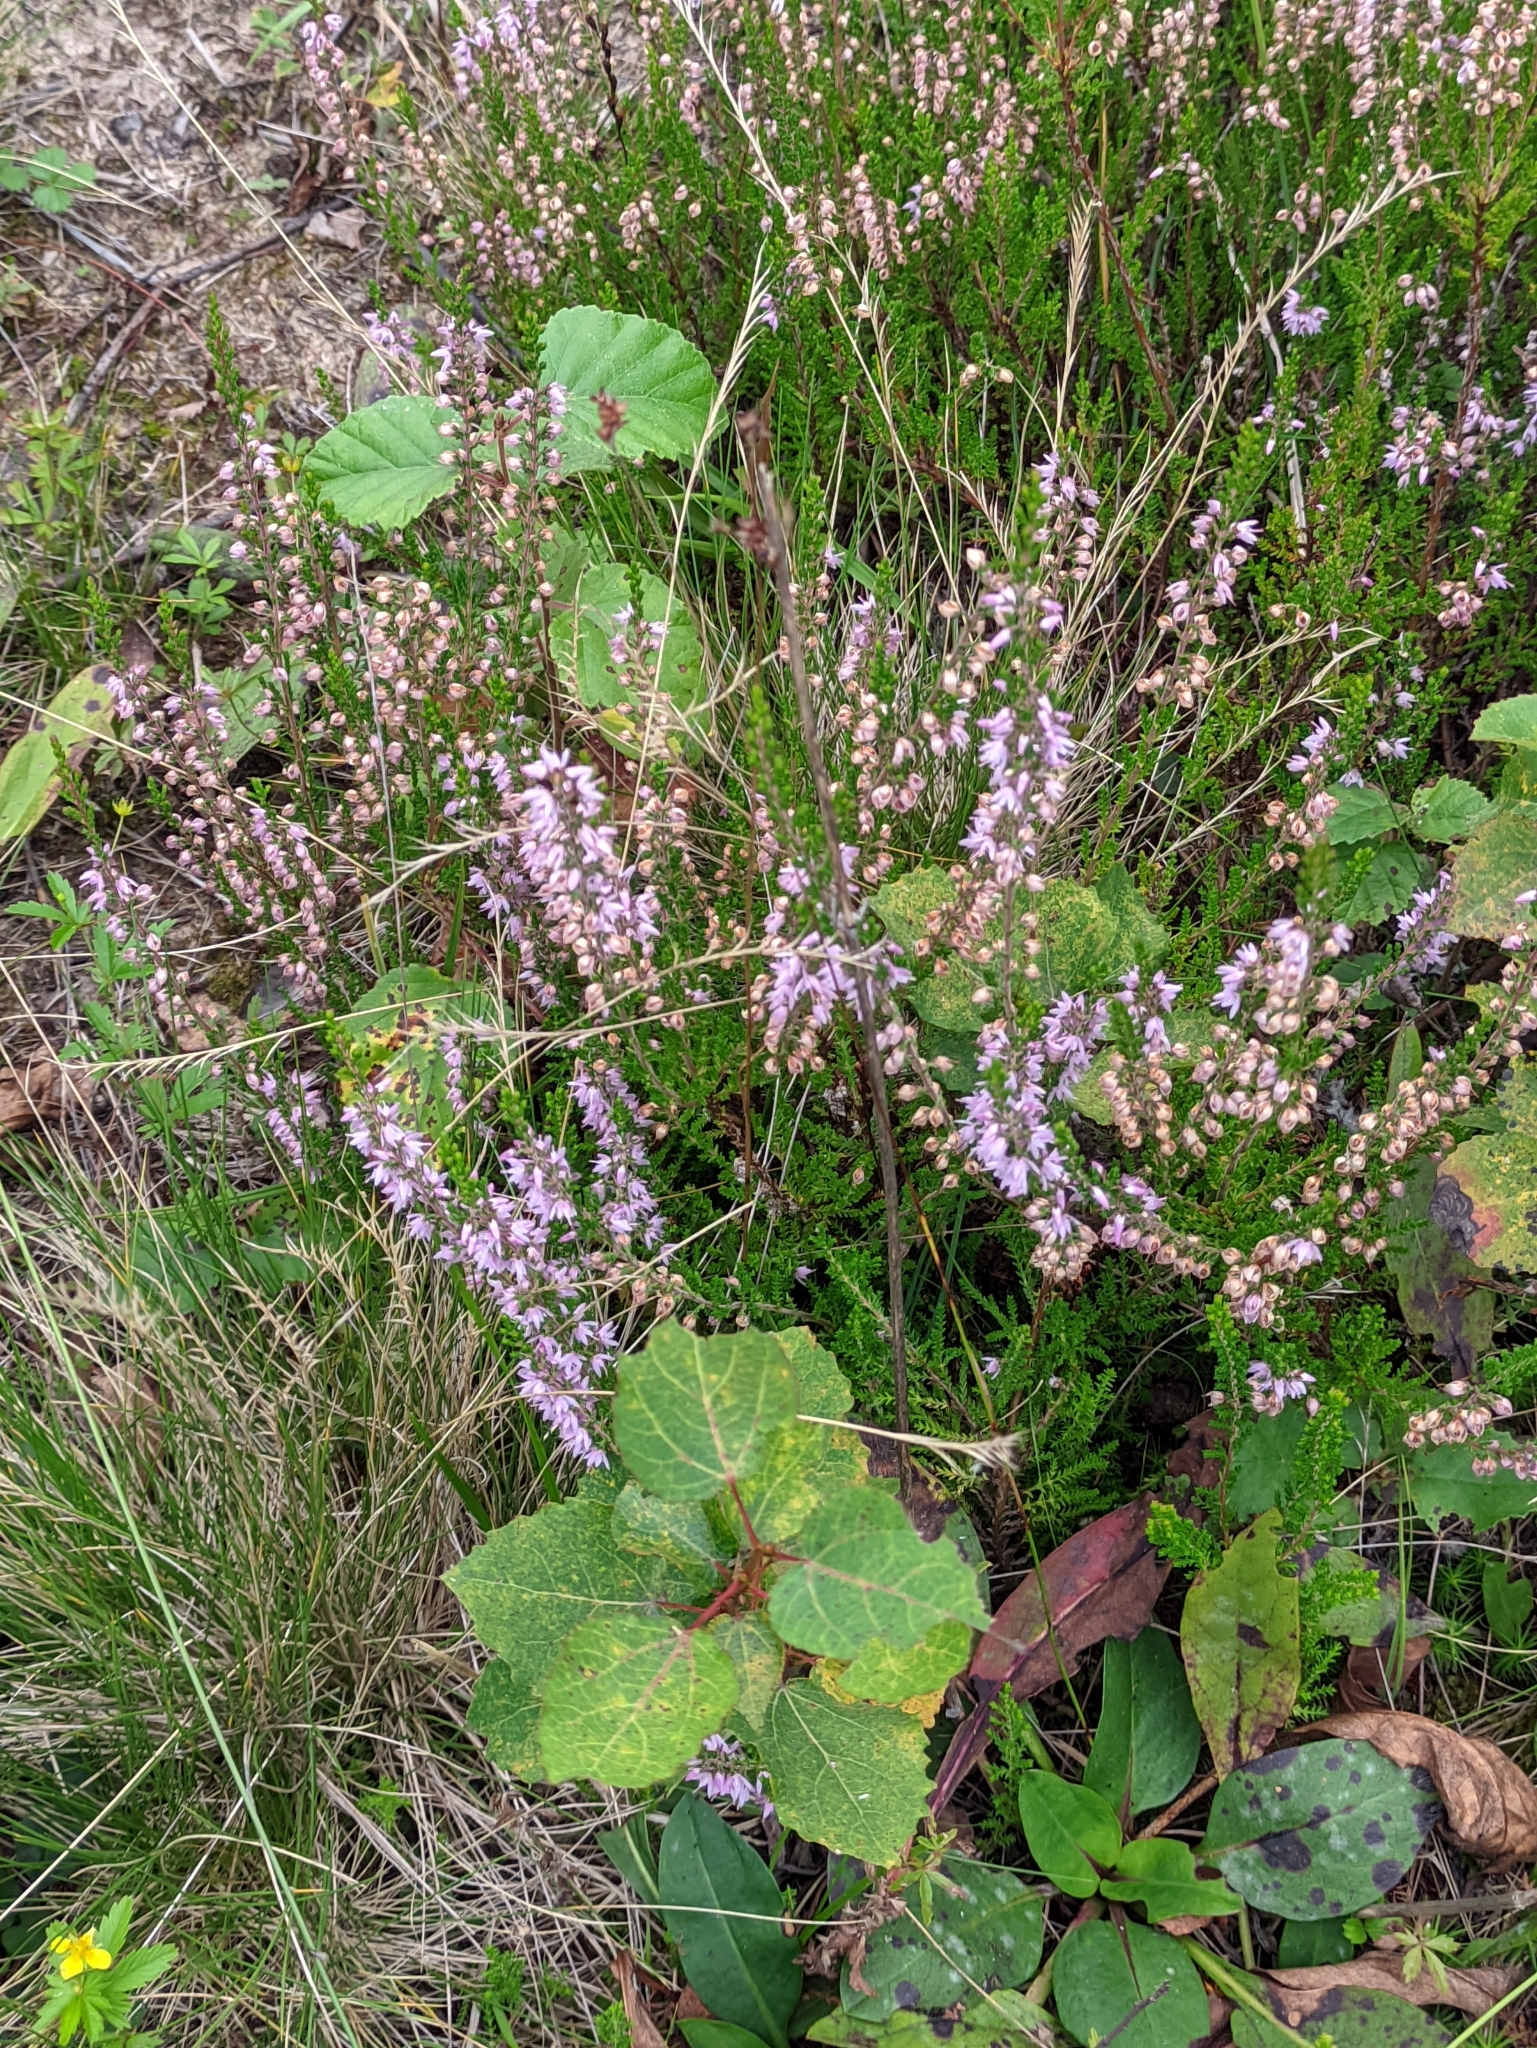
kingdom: Plantae
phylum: Tracheophyta
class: Magnoliopsida
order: Ericales
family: Ericaceae
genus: Calluna
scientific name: Calluna vulgaris
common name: Heather
